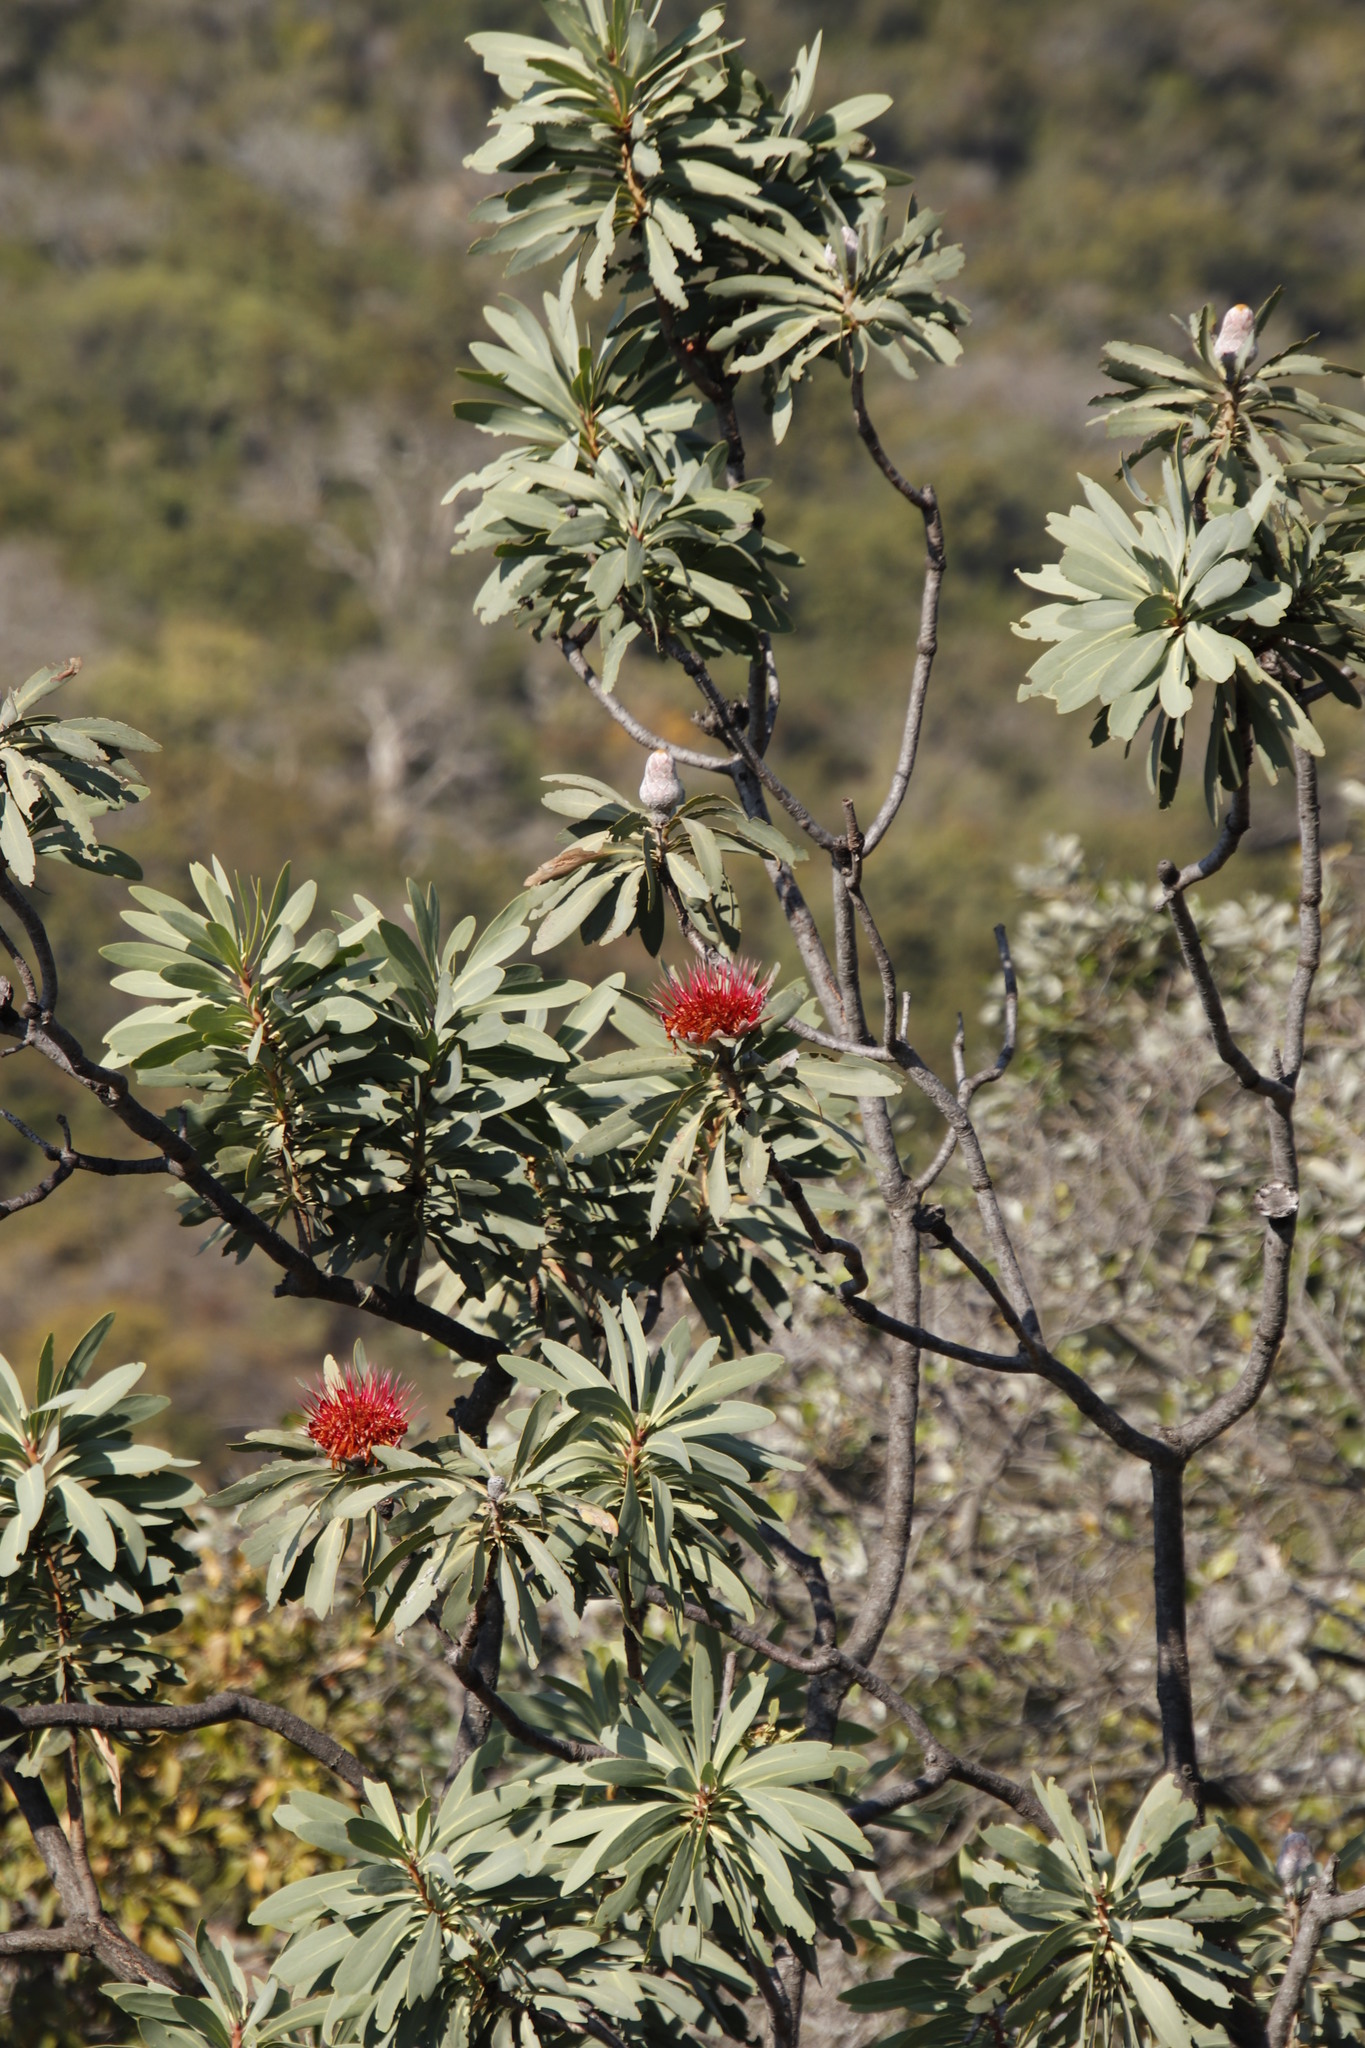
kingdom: Plantae
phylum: Tracheophyta
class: Magnoliopsida
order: Proteales
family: Proteaceae
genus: Protea
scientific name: Protea laetans
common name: Blyde protea
